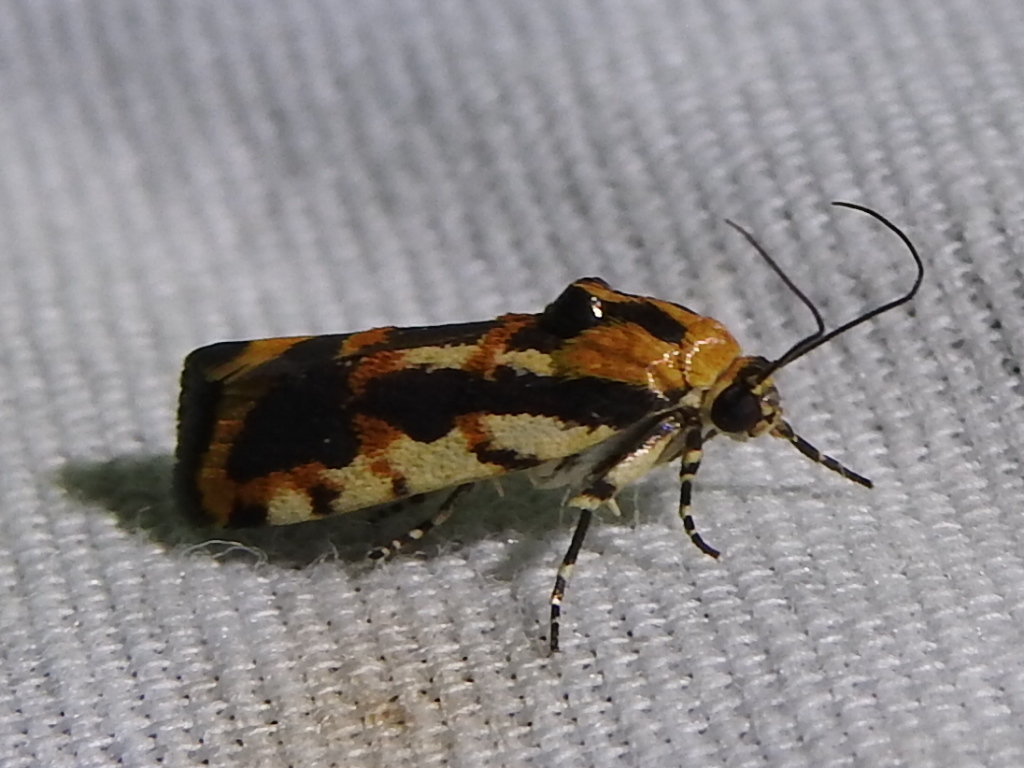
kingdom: Animalia
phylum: Arthropoda
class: Insecta
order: Lepidoptera
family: Noctuidae
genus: Acontia
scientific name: Acontia leo
